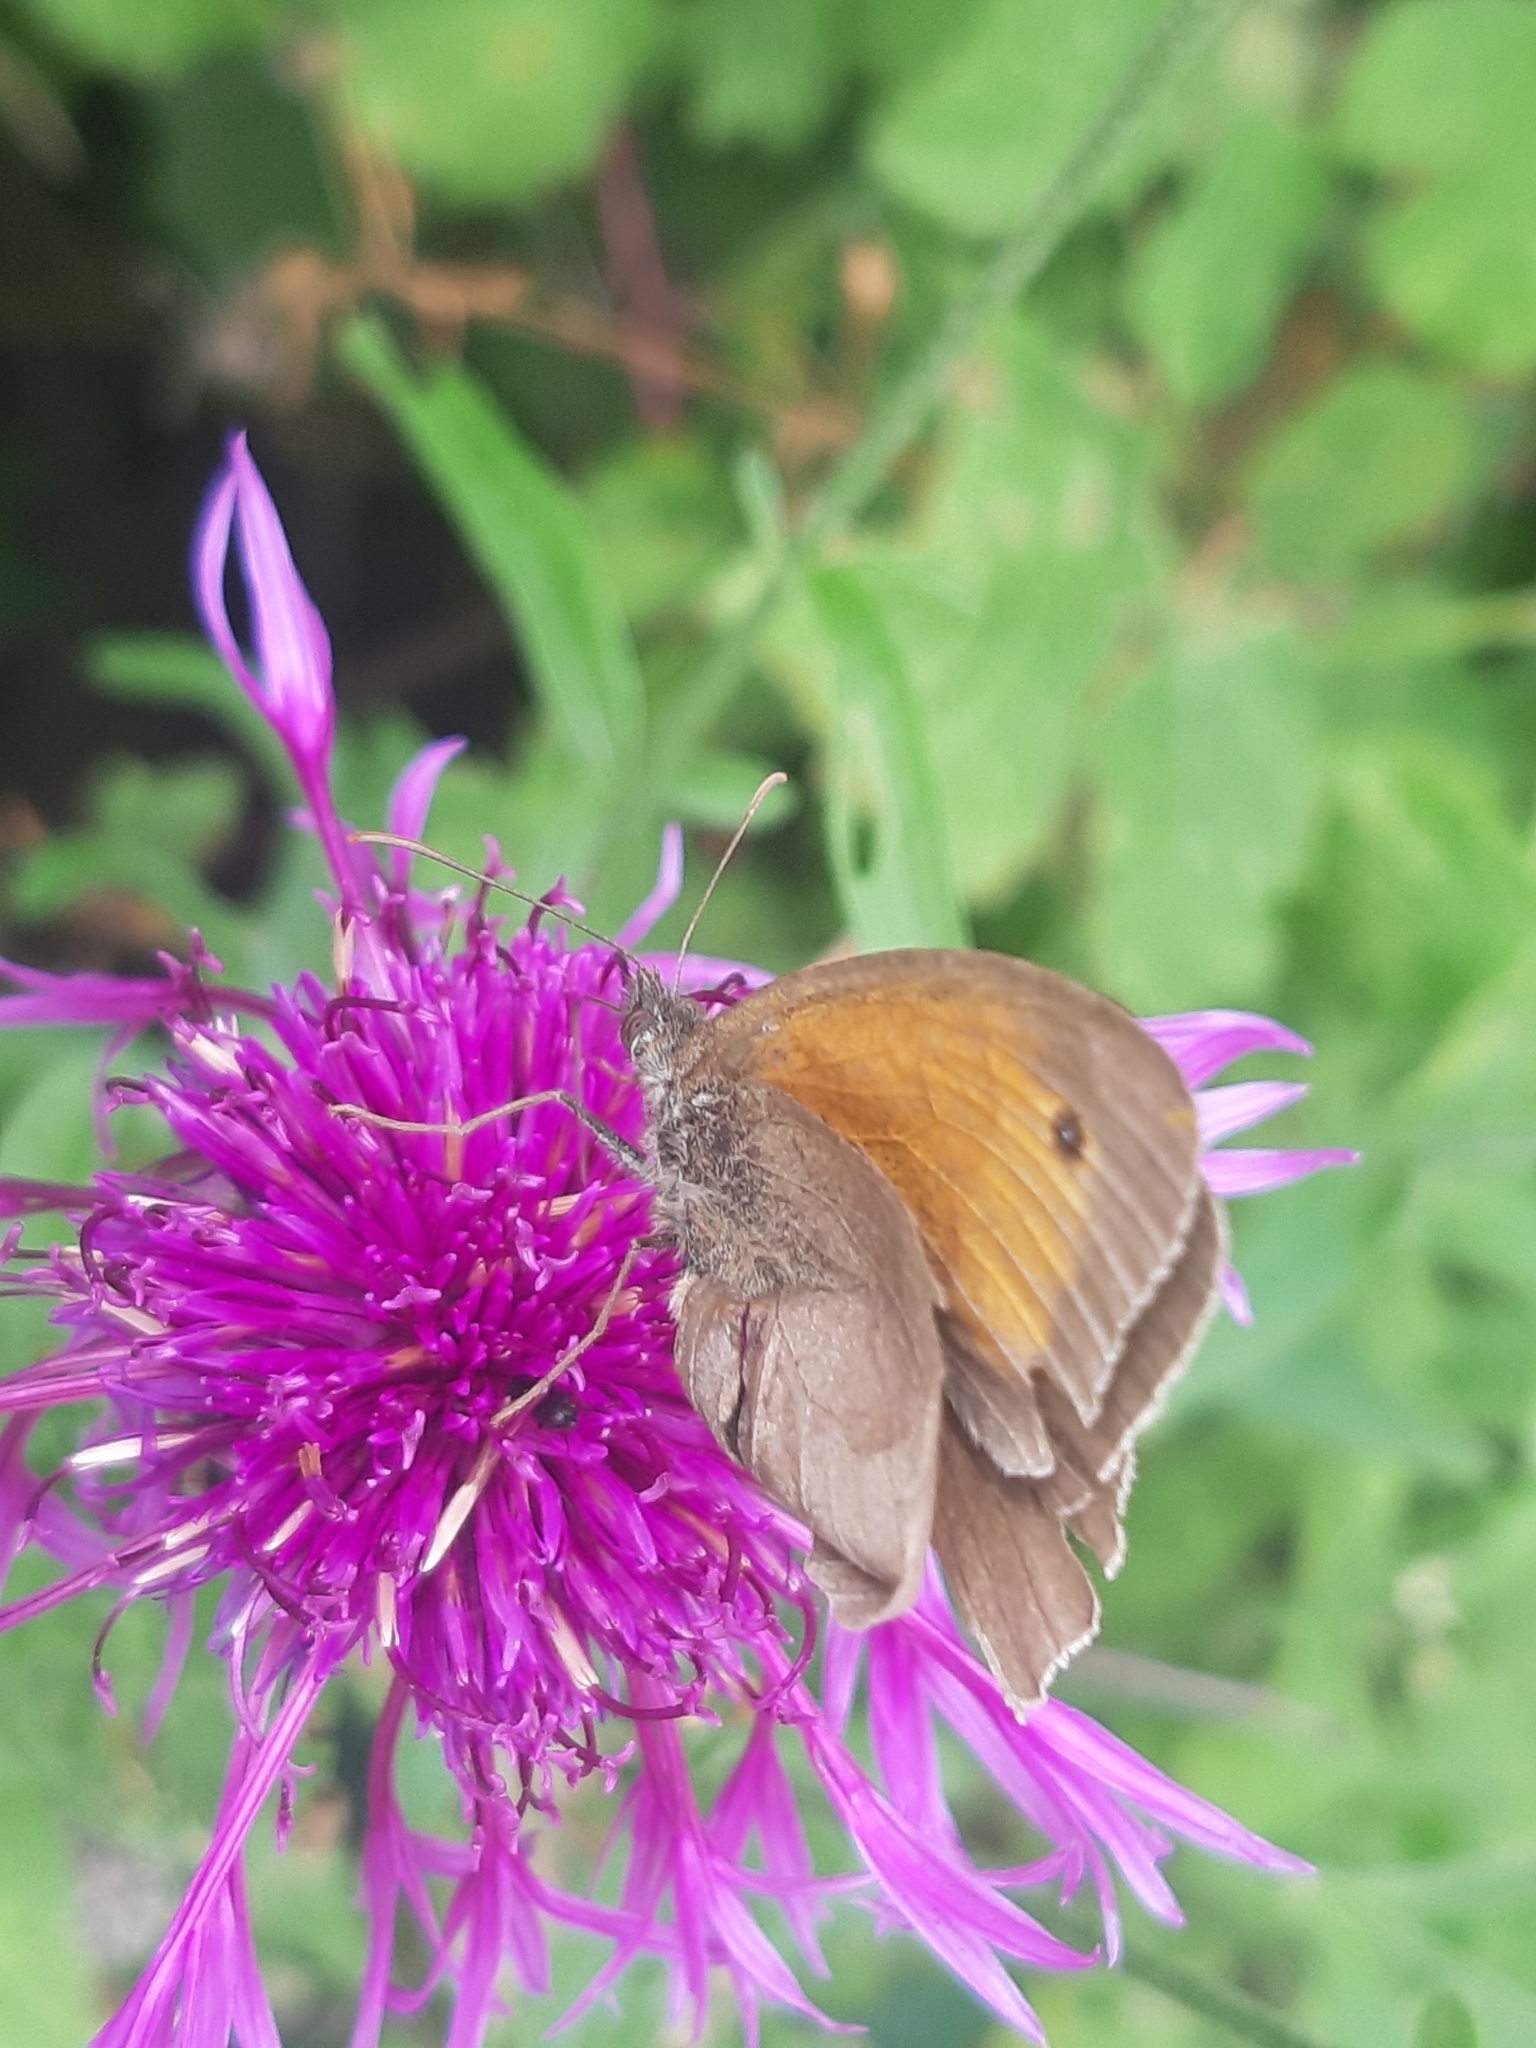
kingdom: Animalia
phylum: Arthropoda
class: Insecta
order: Lepidoptera
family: Nymphalidae
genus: Maniola
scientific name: Maniola jurtina
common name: Meadow brown
